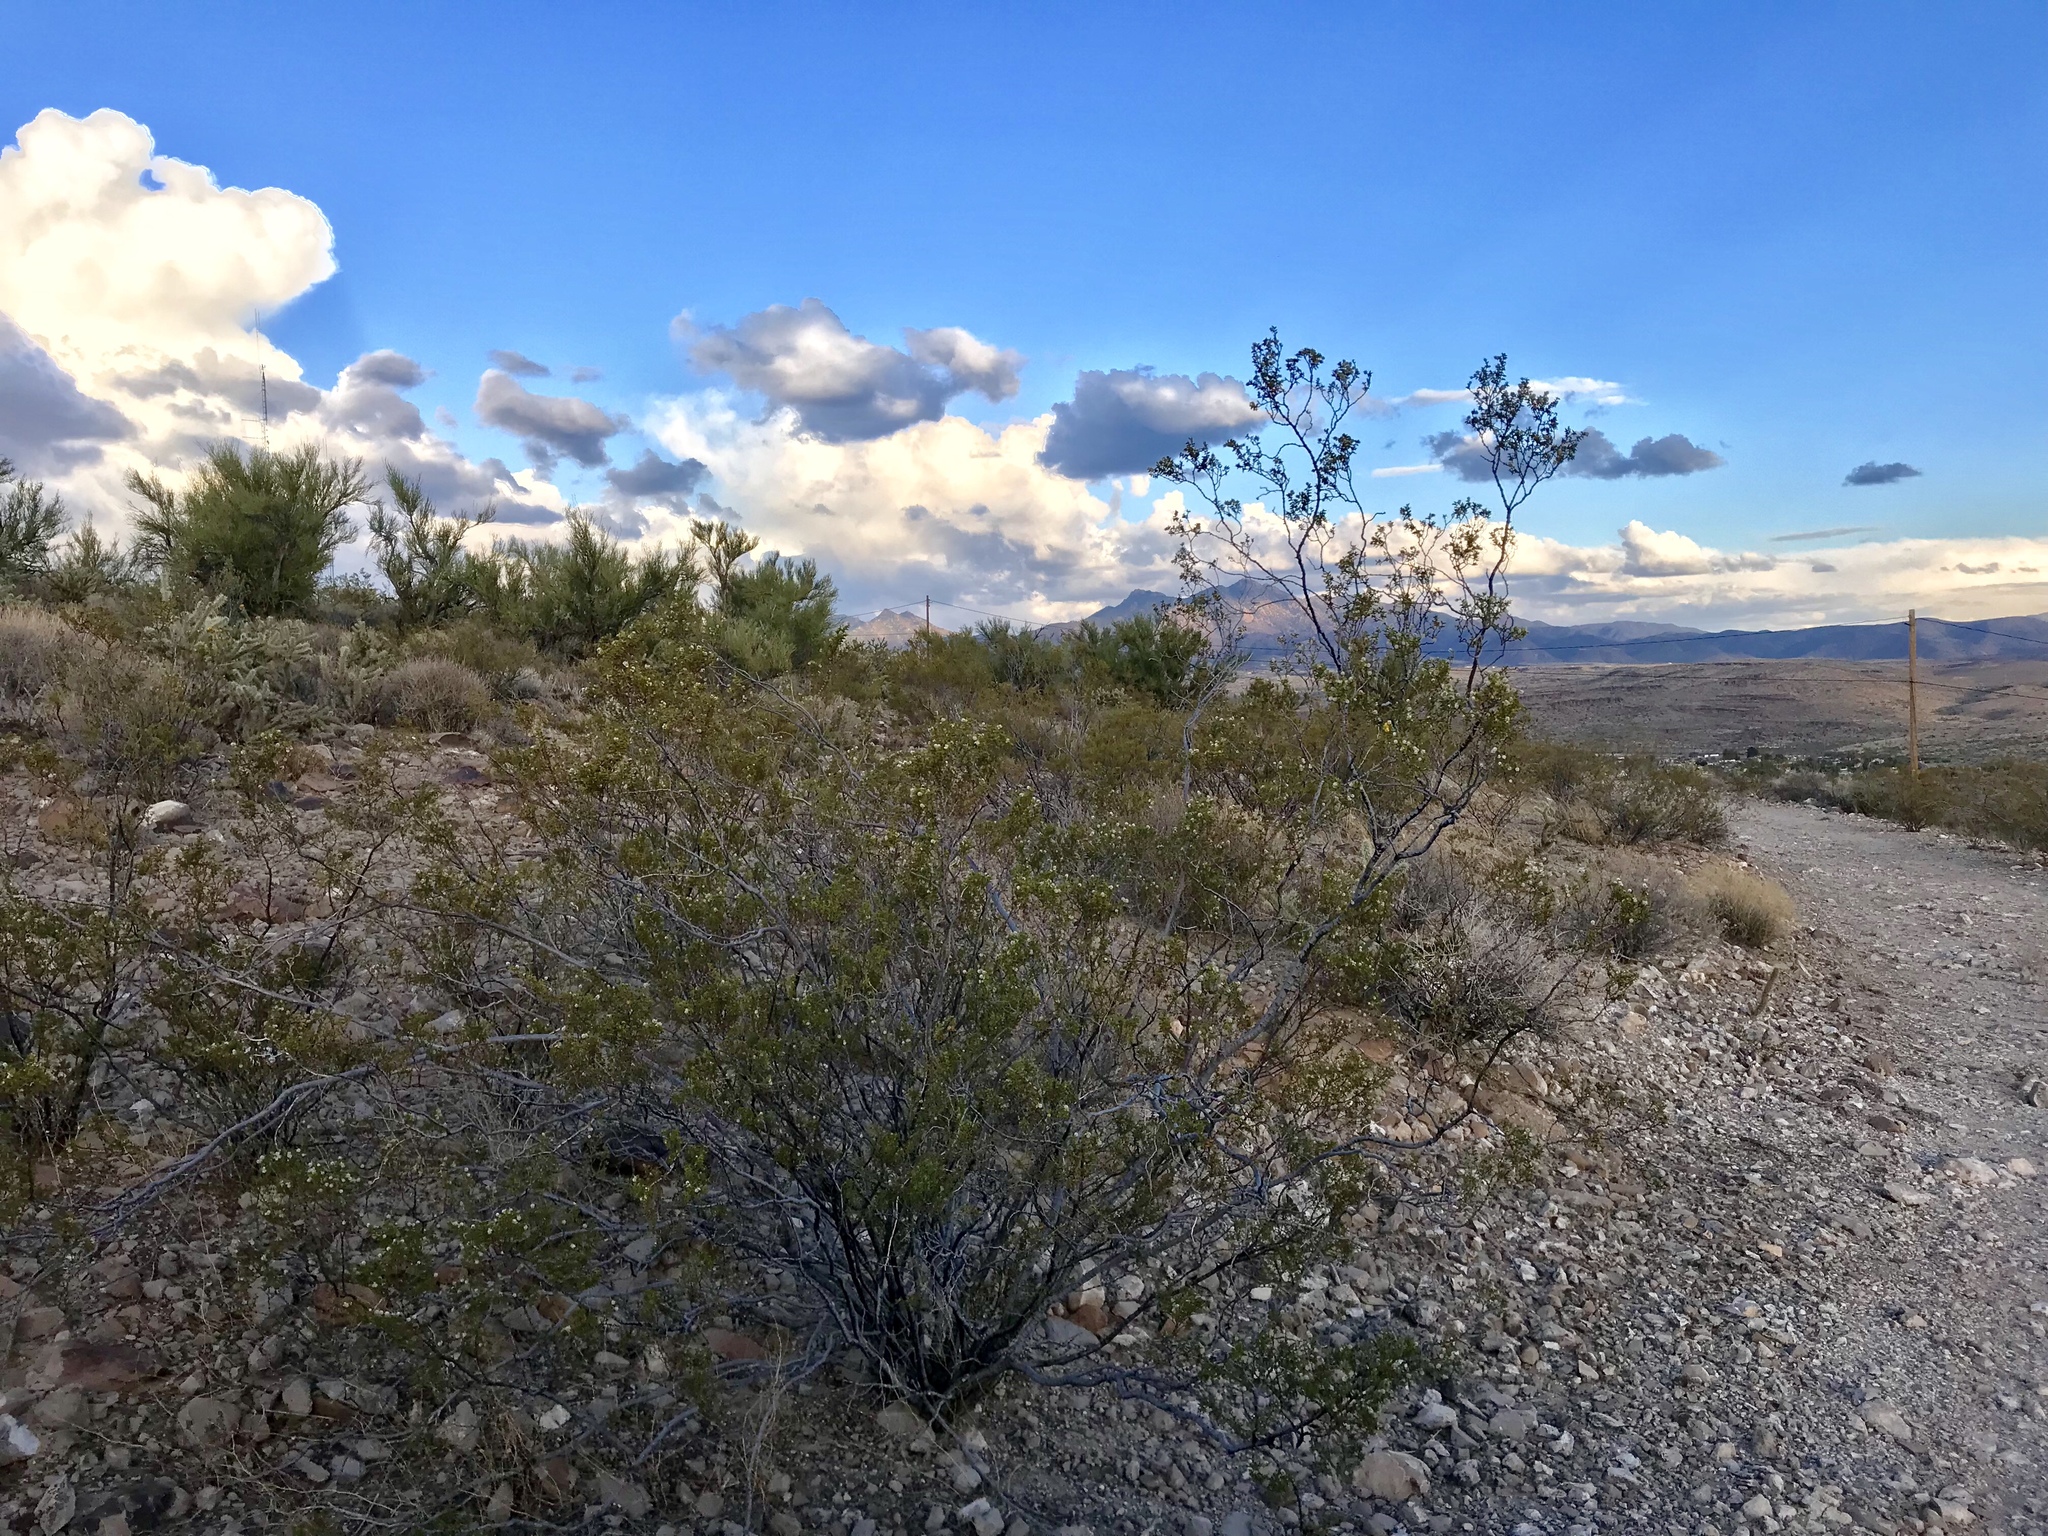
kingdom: Plantae
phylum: Tracheophyta
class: Magnoliopsida
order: Zygophyllales
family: Zygophyllaceae
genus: Larrea
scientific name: Larrea tridentata
